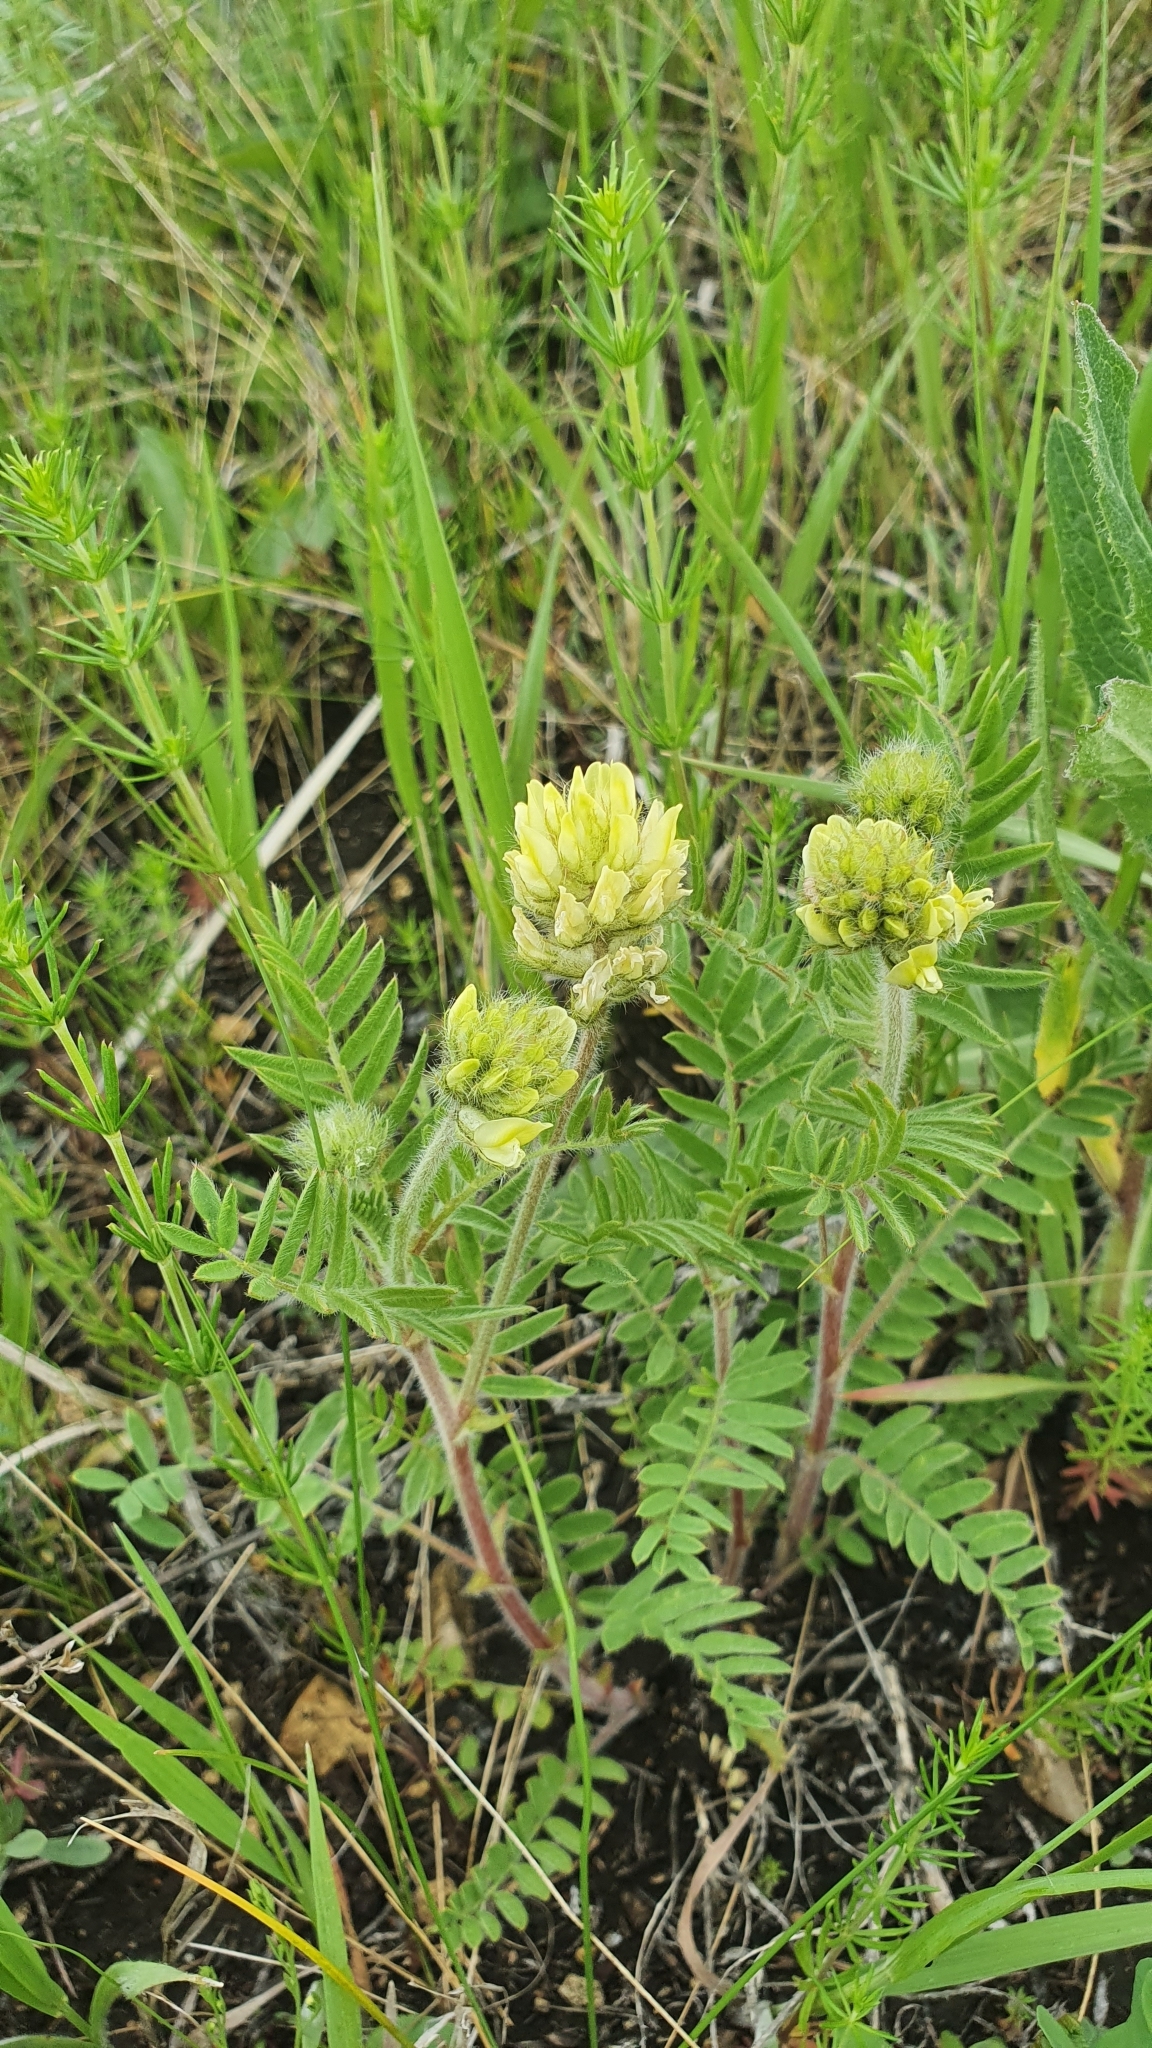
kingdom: Plantae
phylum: Tracheophyta
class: Magnoliopsida
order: Fabales
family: Fabaceae
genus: Oxytropis
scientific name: Oxytropis pilosa
